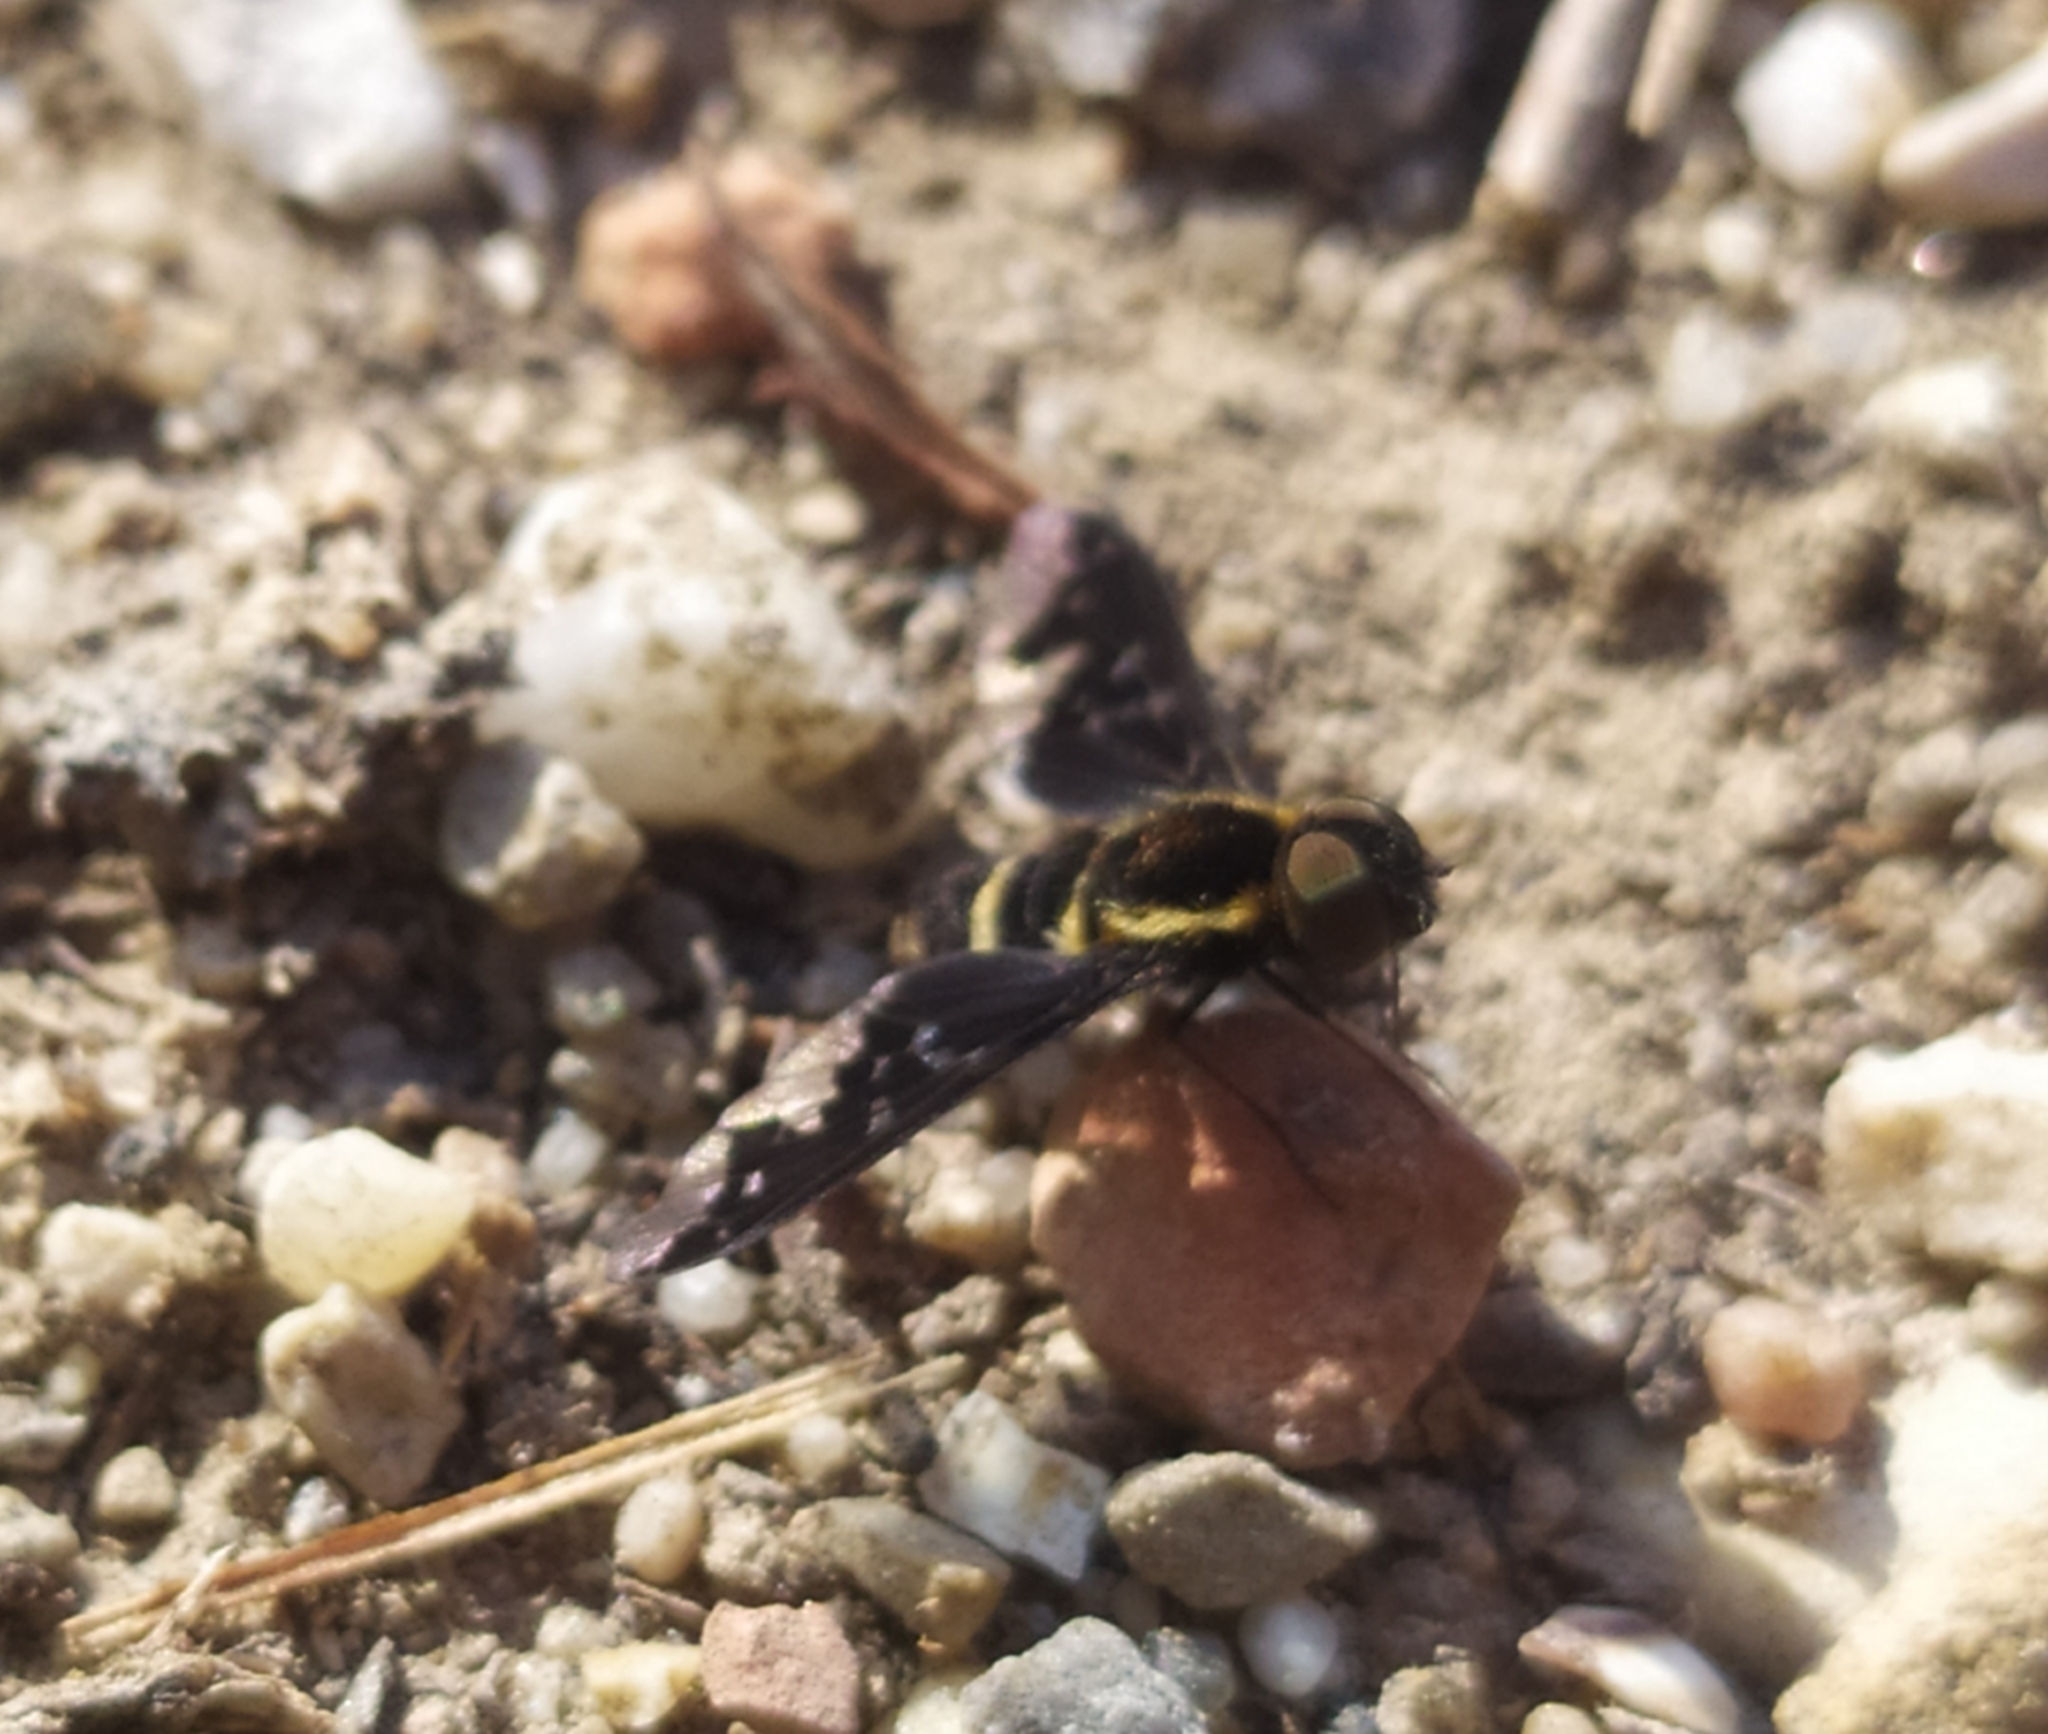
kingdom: Animalia
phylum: Arthropoda
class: Insecta
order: Diptera
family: Bombyliidae
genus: Hemipenthes
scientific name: Hemipenthes maura
